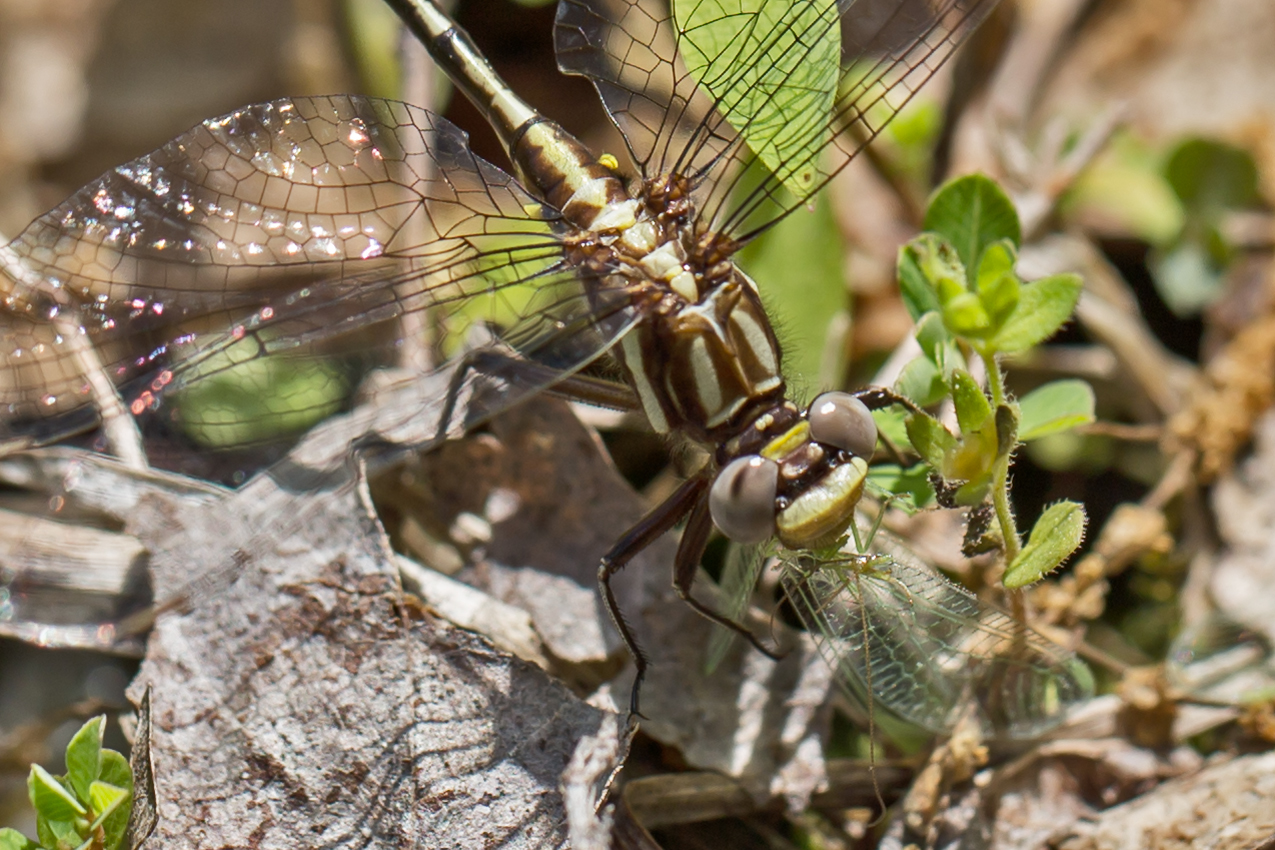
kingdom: Animalia
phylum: Arthropoda
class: Insecta
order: Odonata
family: Gomphidae
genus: Phanogomphus
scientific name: Phanogomphus exilis
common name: Lancet clubtail
